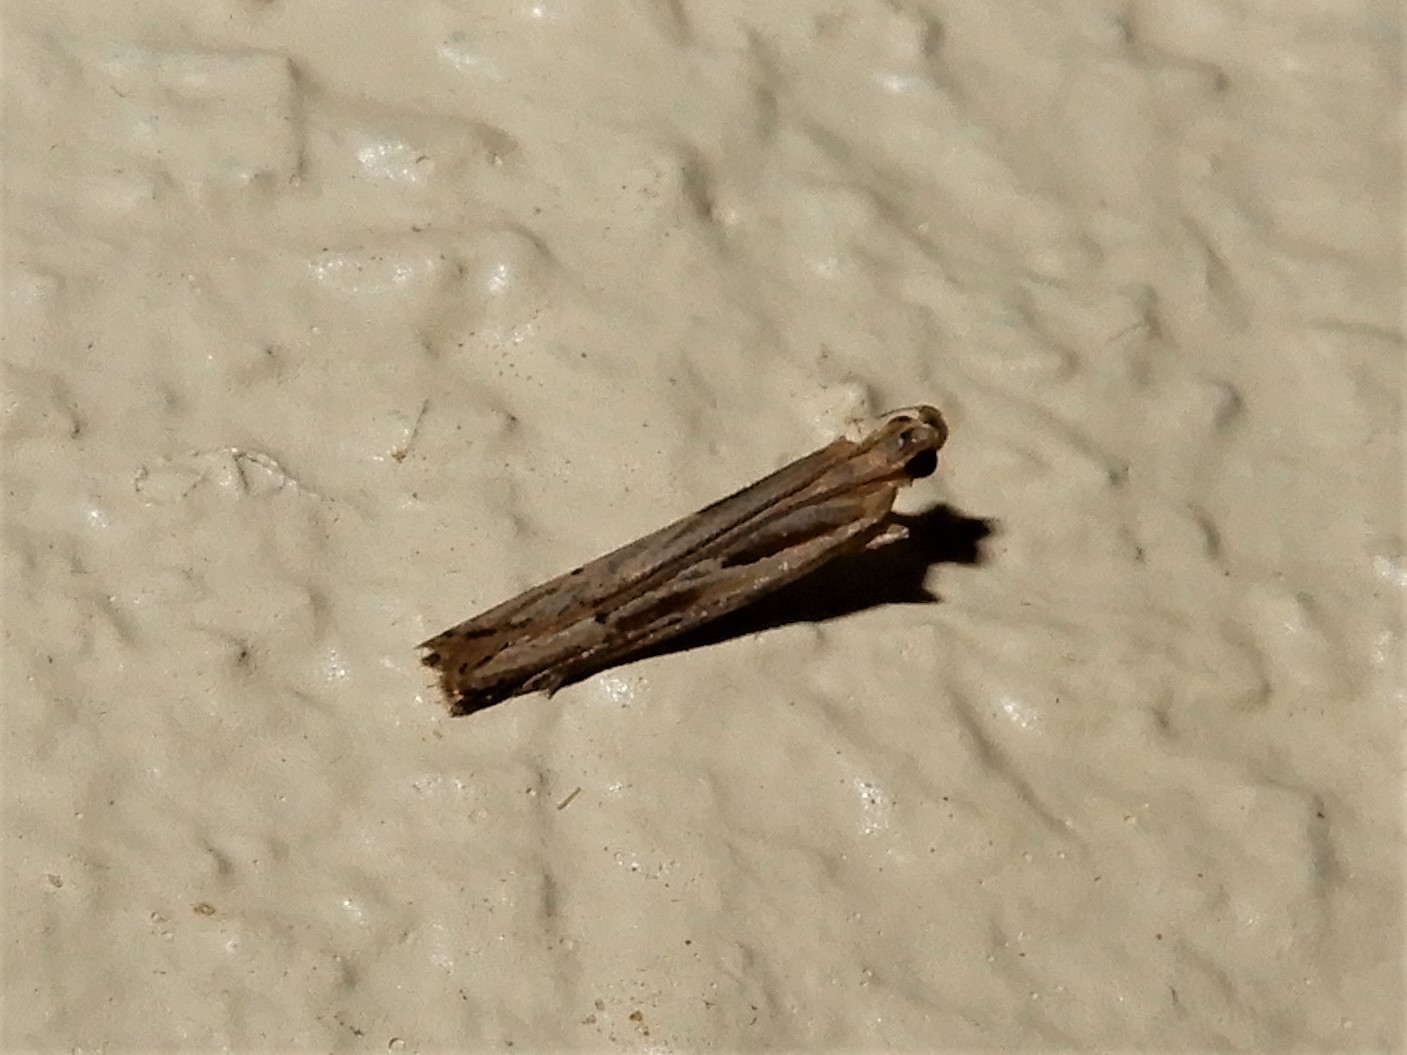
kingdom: Animalia
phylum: Arthropoda
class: Insecta
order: Lepidoptera
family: Depressariidae
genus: Eutorna
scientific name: Eutorna symmorpha
